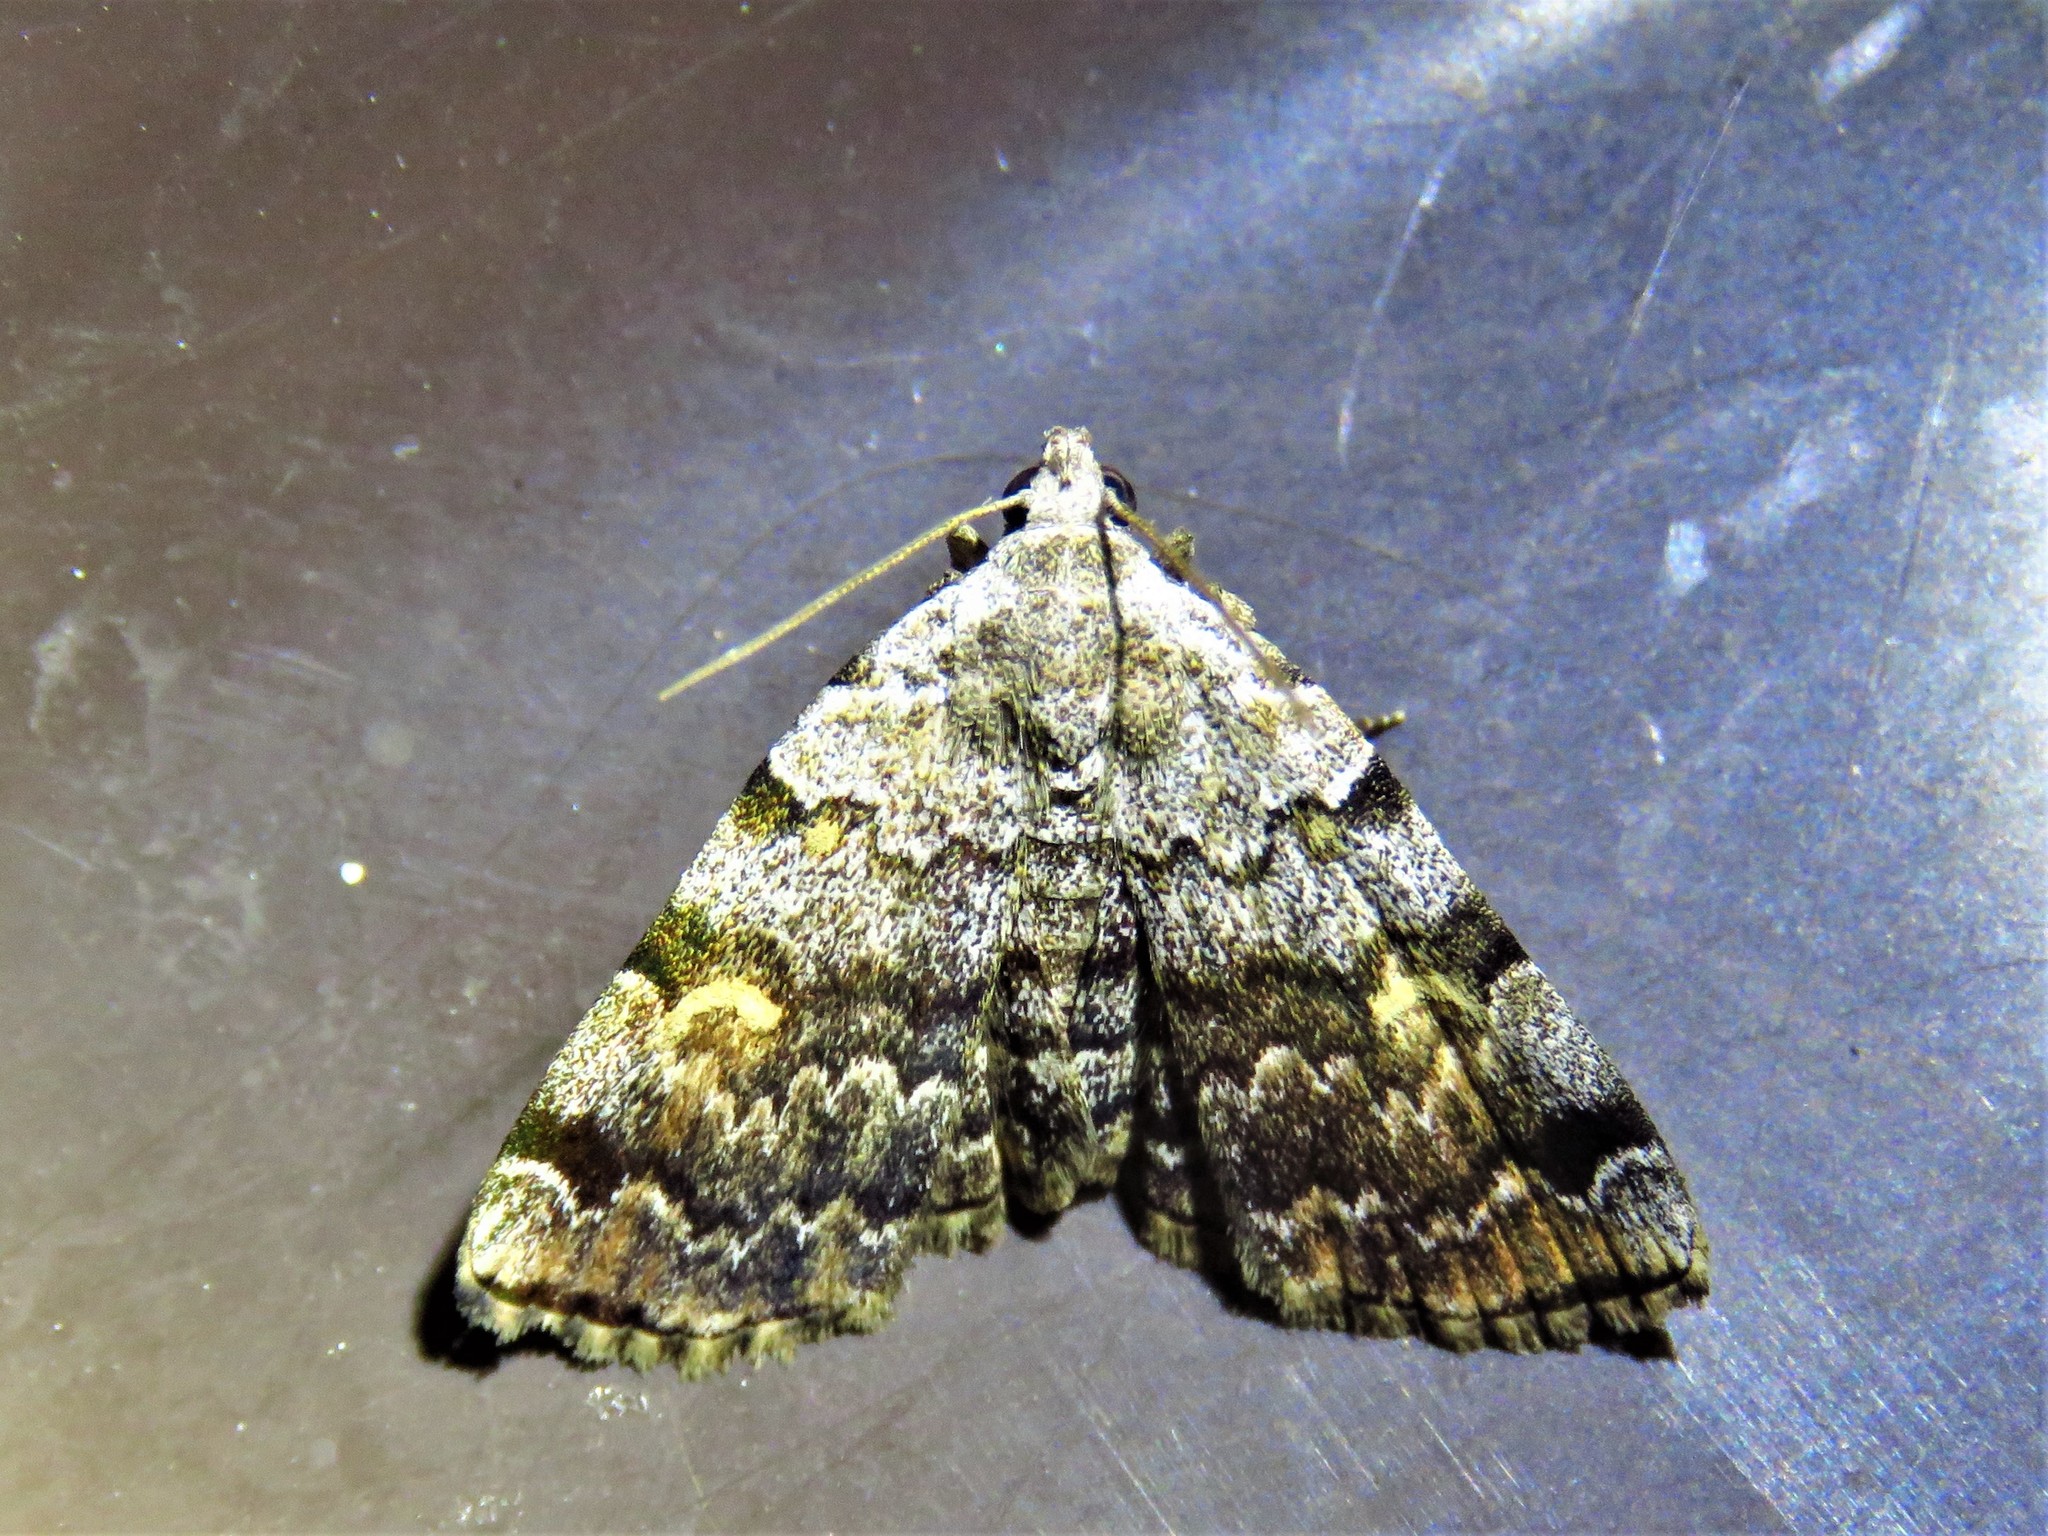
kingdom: Animalia
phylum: Arthropoda
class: Insecta
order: Lepidoptera
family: Erebidae
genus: Idia
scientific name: Idia americalis
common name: American idia moth
